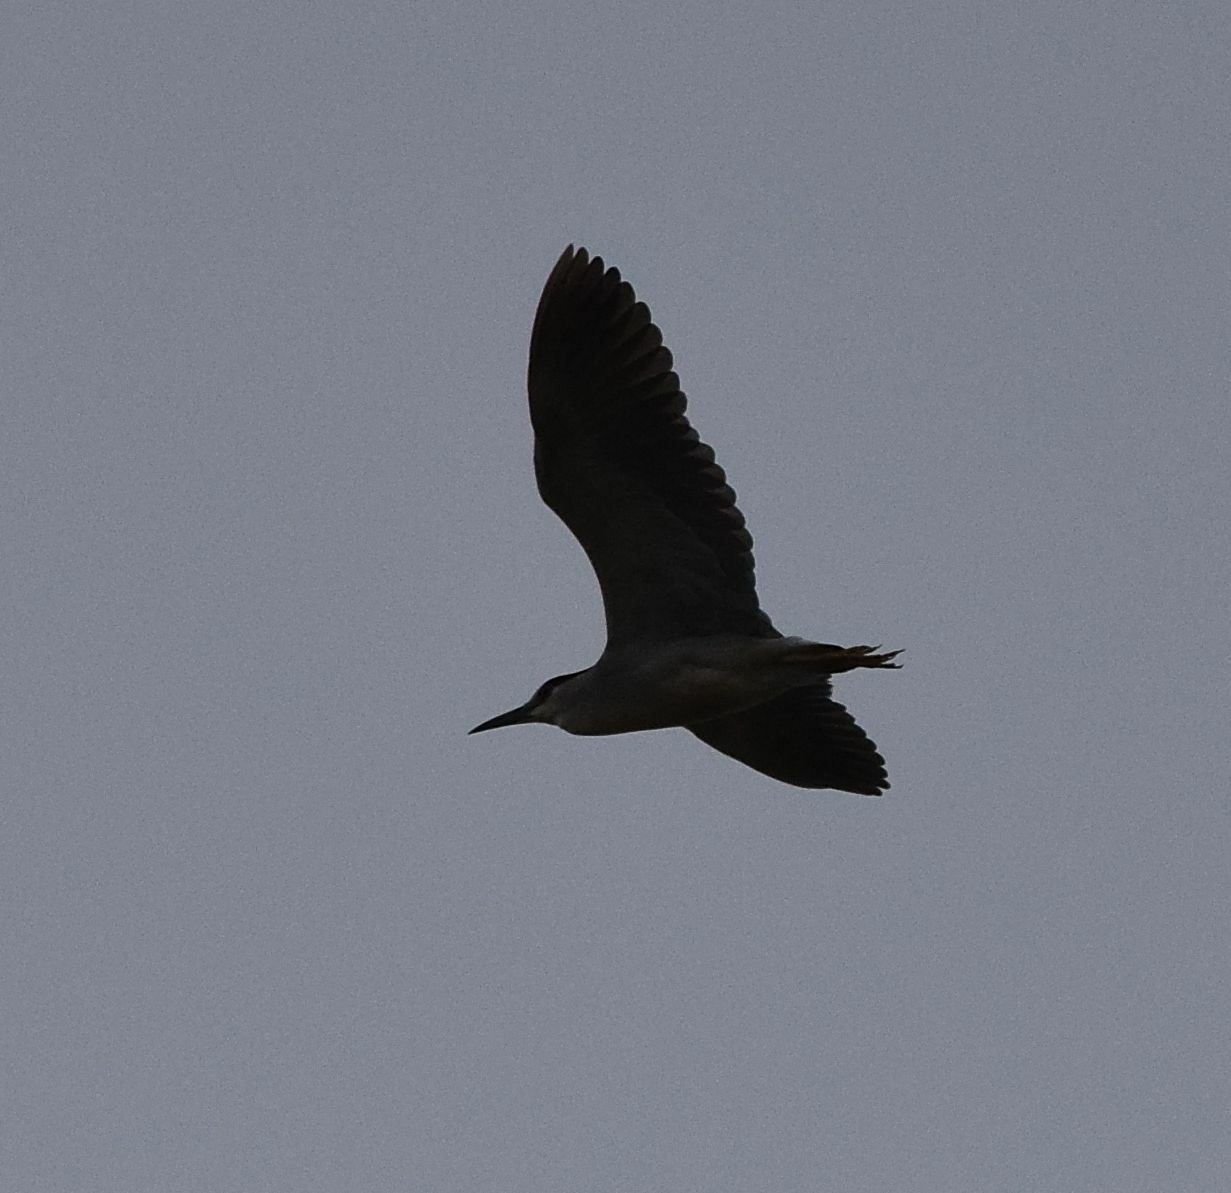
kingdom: Animalia
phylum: Chordata
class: Aves
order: Pelecaniformes
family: Ardeidae
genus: Nycticorax
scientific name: Nycticorax nycticorax
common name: Black-crowned night heron
